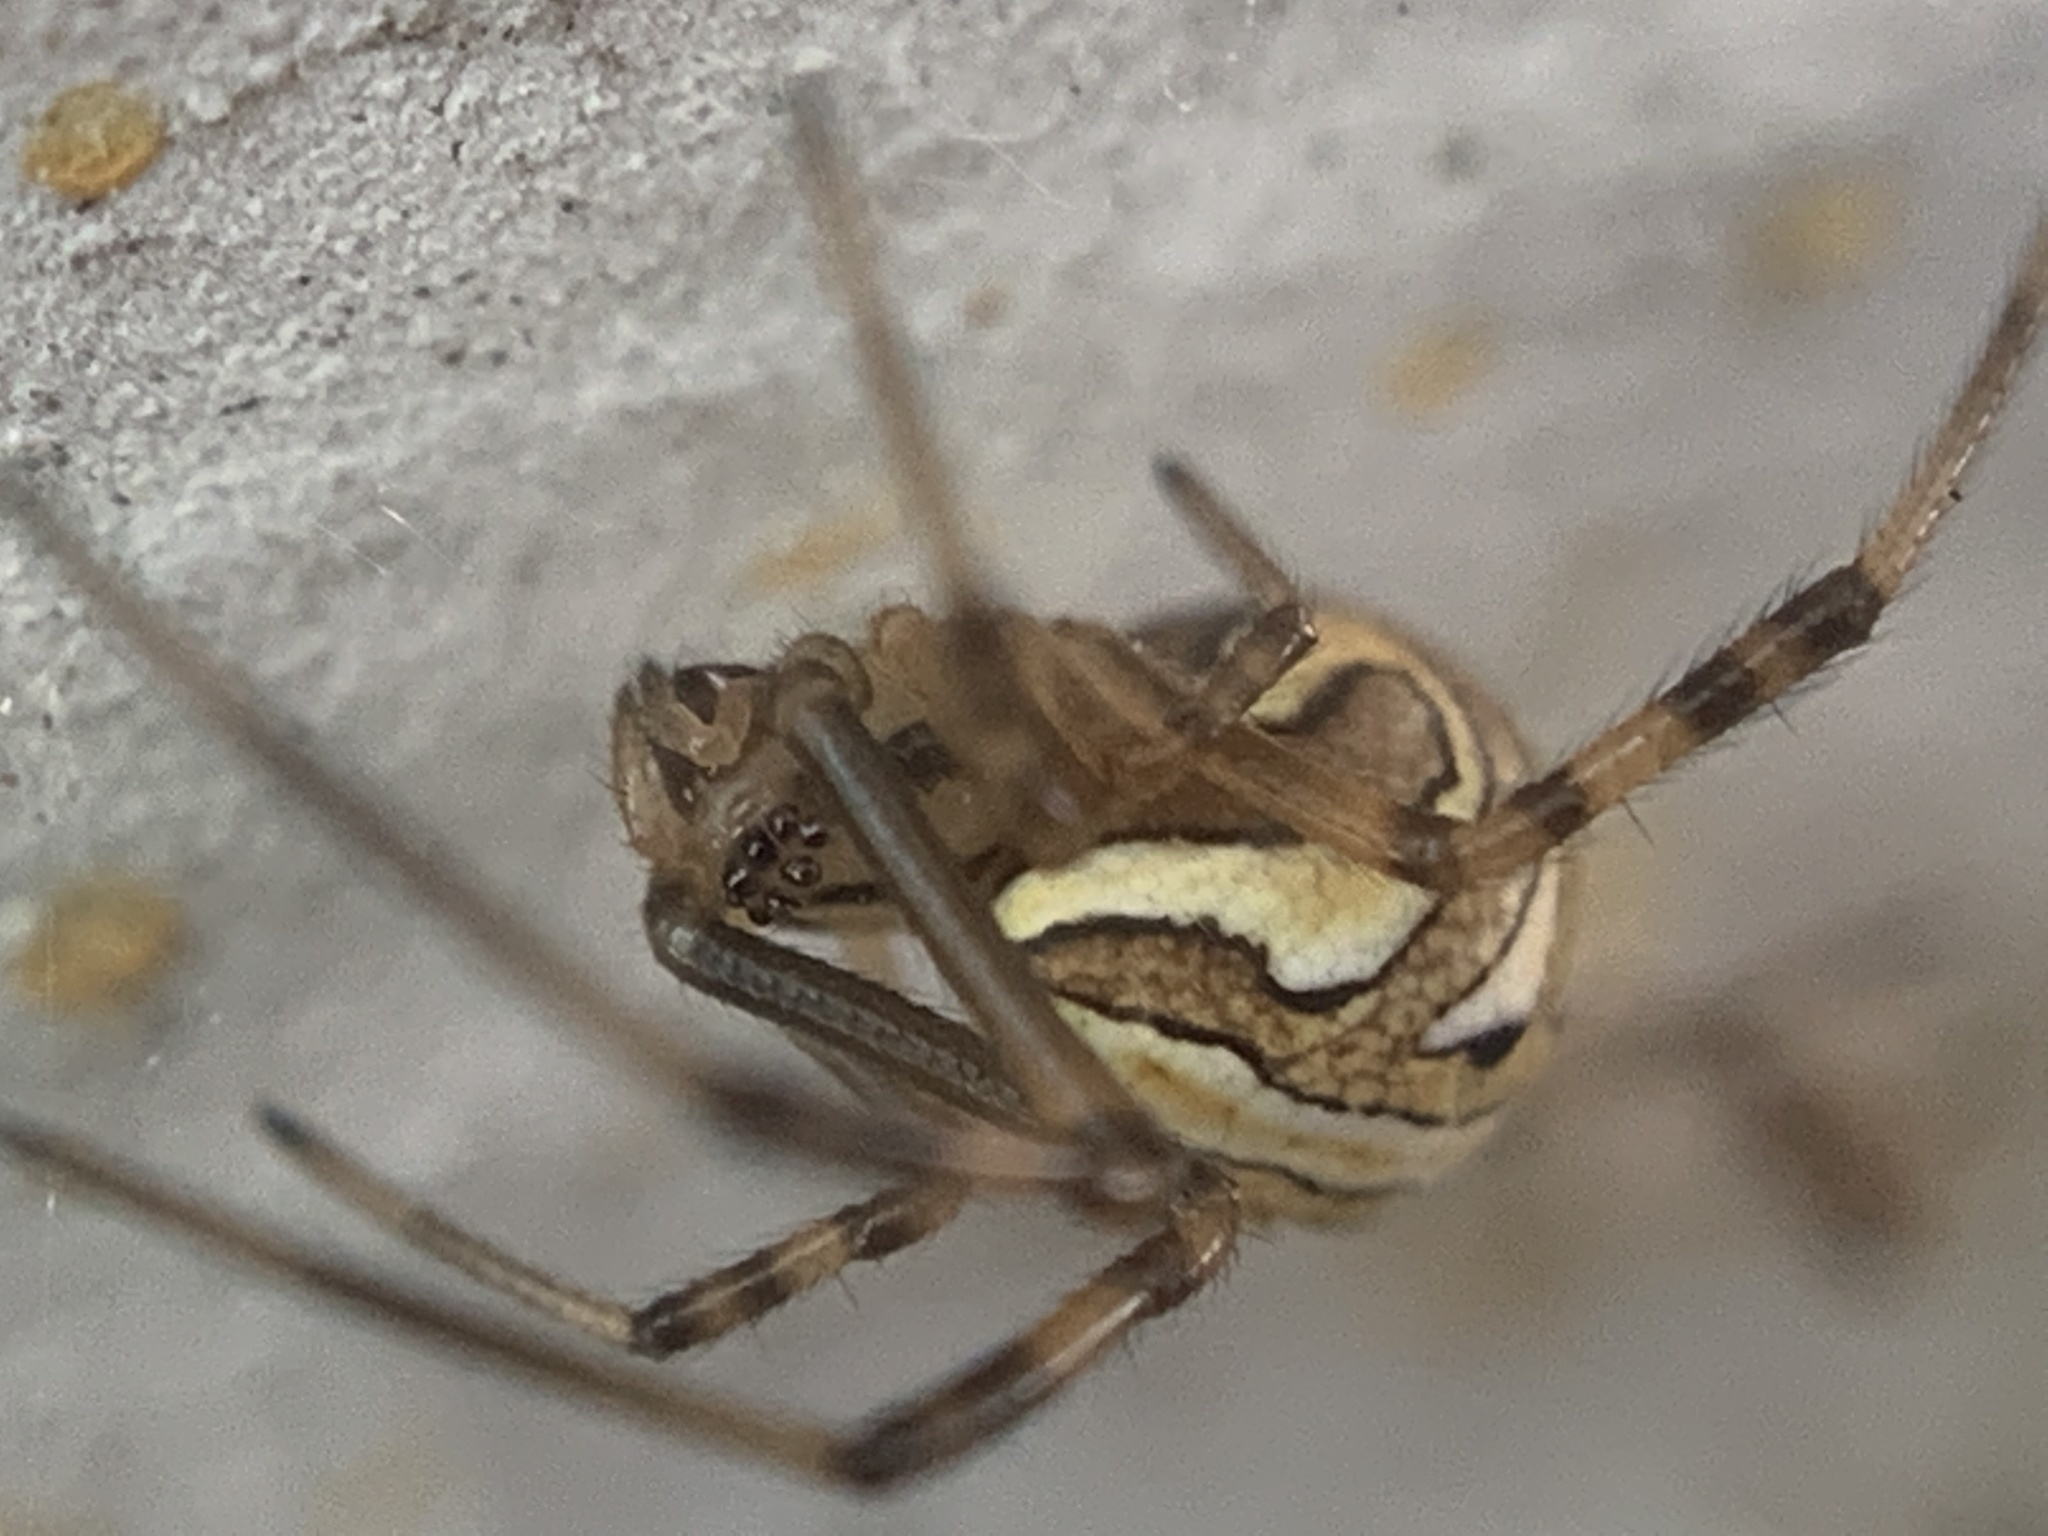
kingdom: Animalia
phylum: Arthropoda
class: Arachnida
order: Araneae
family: Theridiidae
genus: Latrodectus
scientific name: Latrodectus hesperus
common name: Western black widow
